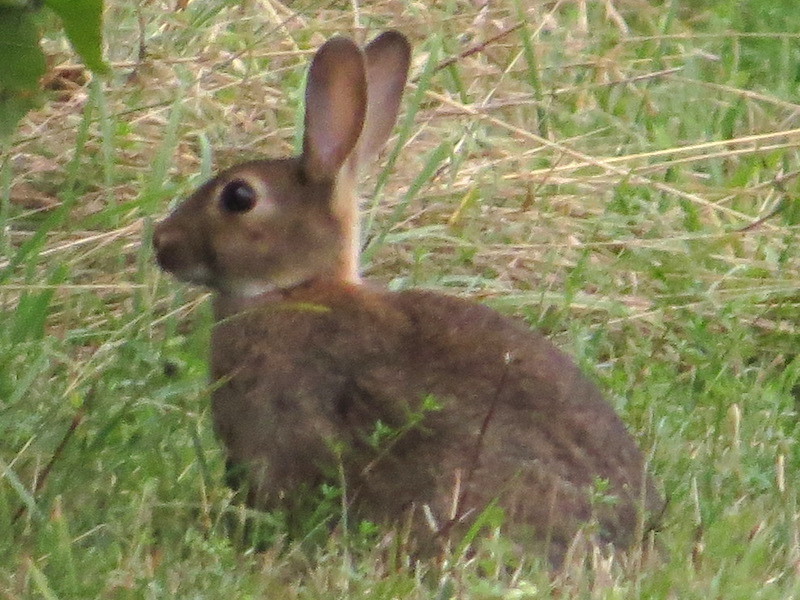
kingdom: Animalia
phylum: Chordata
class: Mammalia
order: Lagomorpha
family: Leporidae
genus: Oryctolagus
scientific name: Oryctolagus cuniculus
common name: European rabbit
